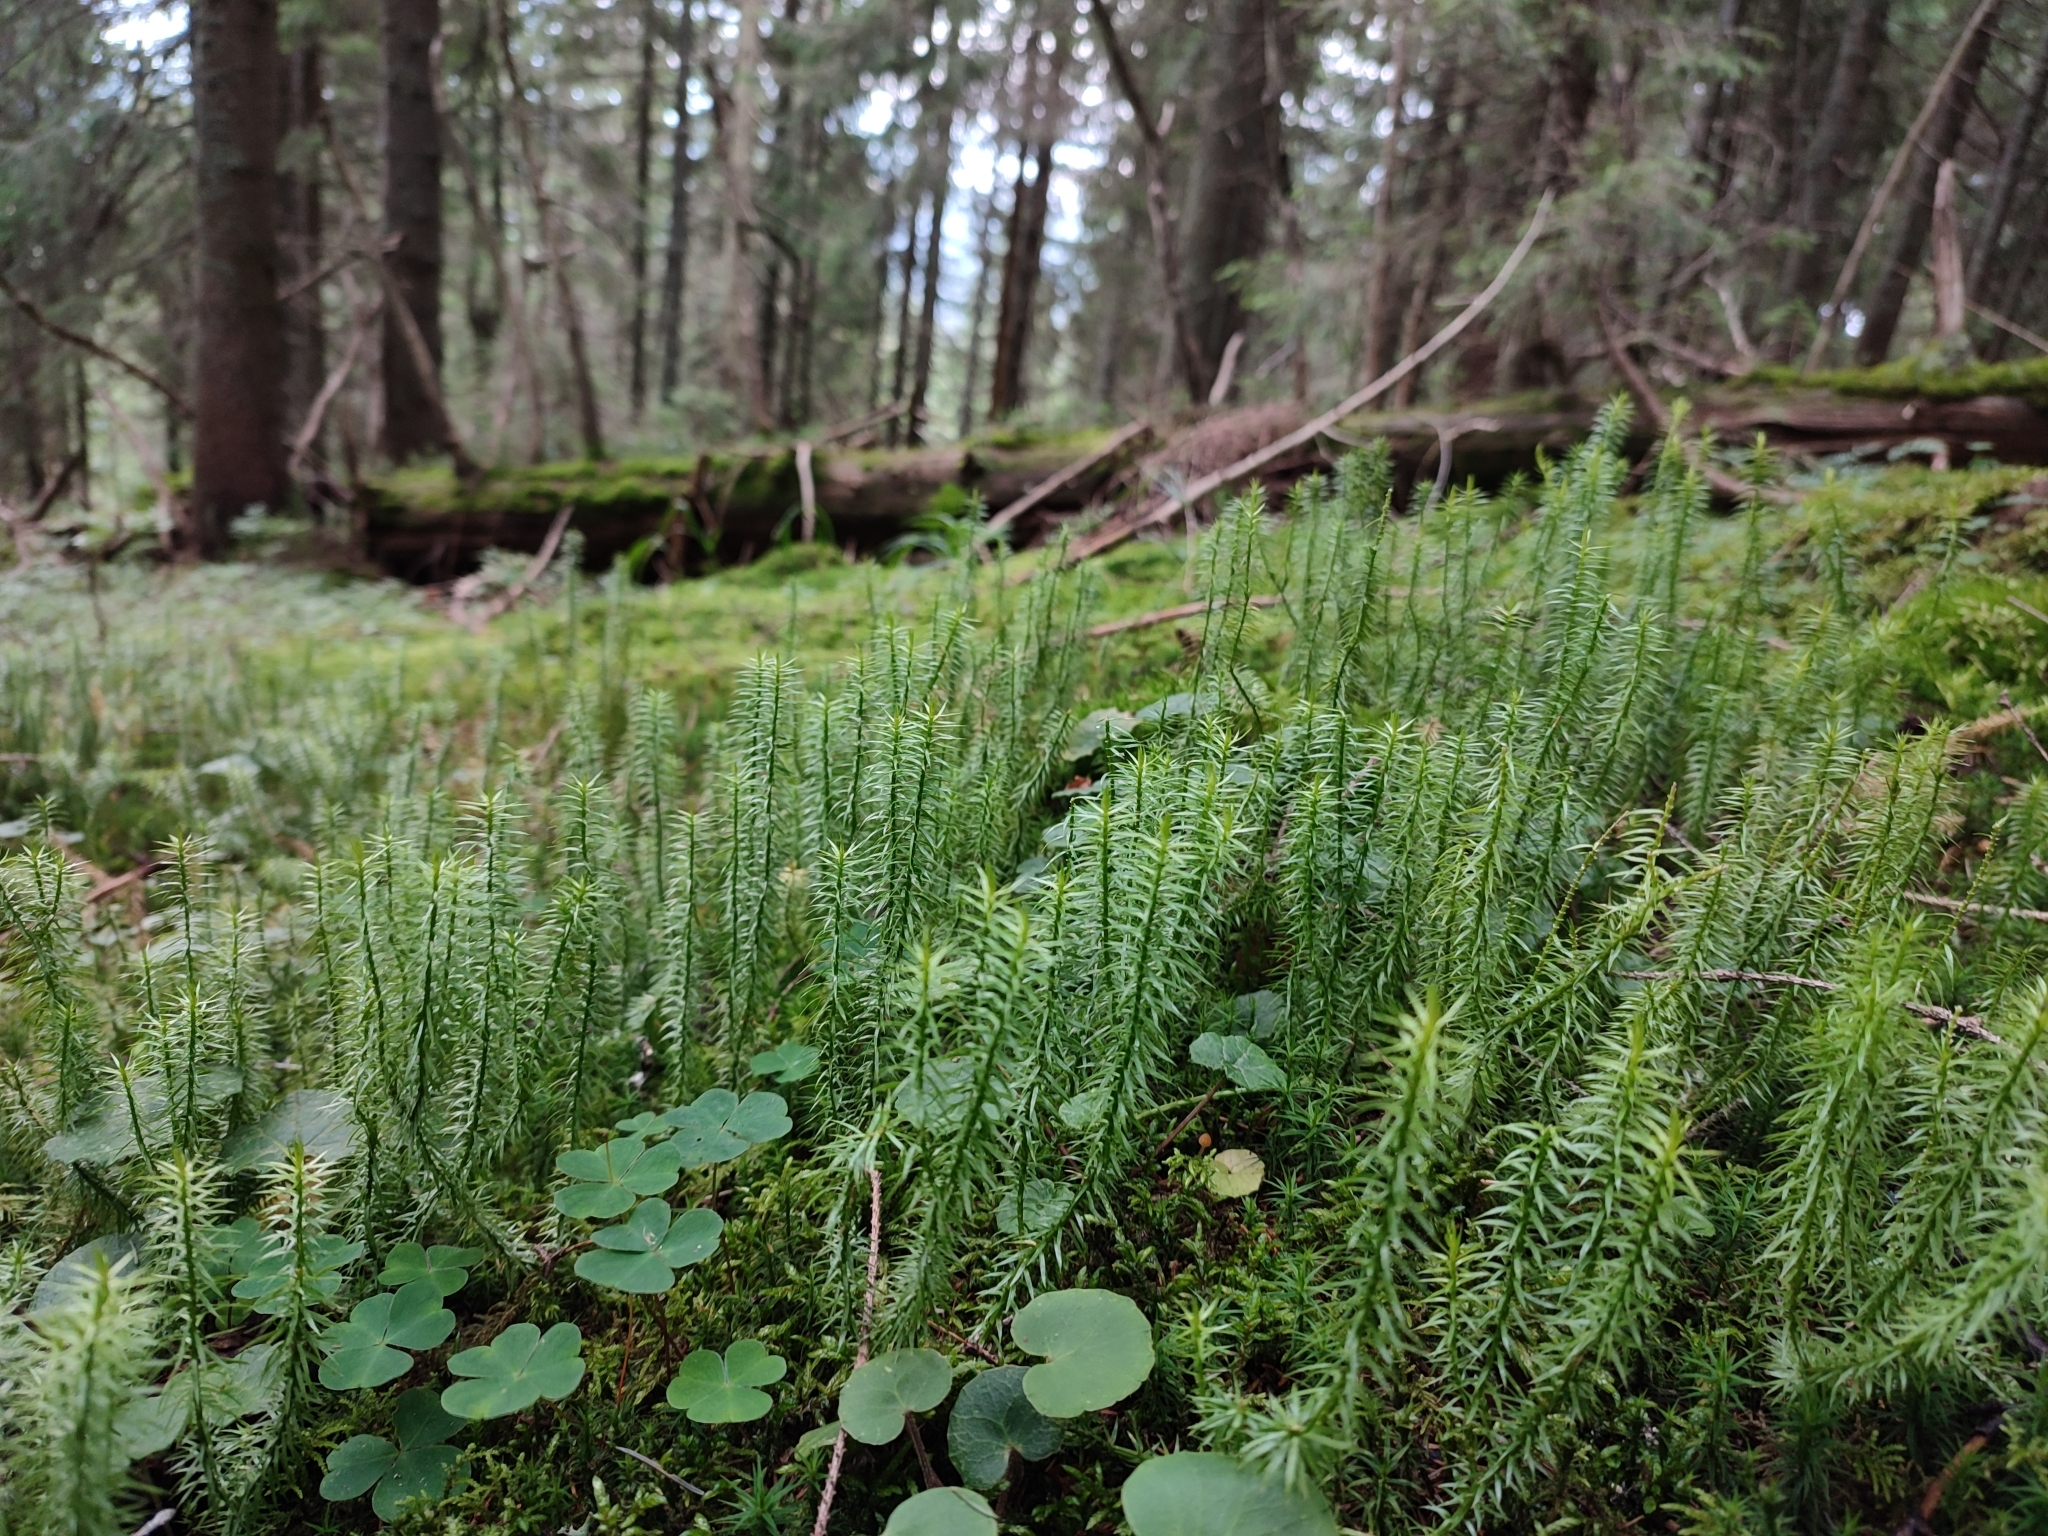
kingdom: Plantae
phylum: Tracheophyta
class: Lycopodiopsida
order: Lycopodiales
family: Lycopodiaceae
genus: Spinulum
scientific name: Spinulum annotinum
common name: Interrupted club-moss
